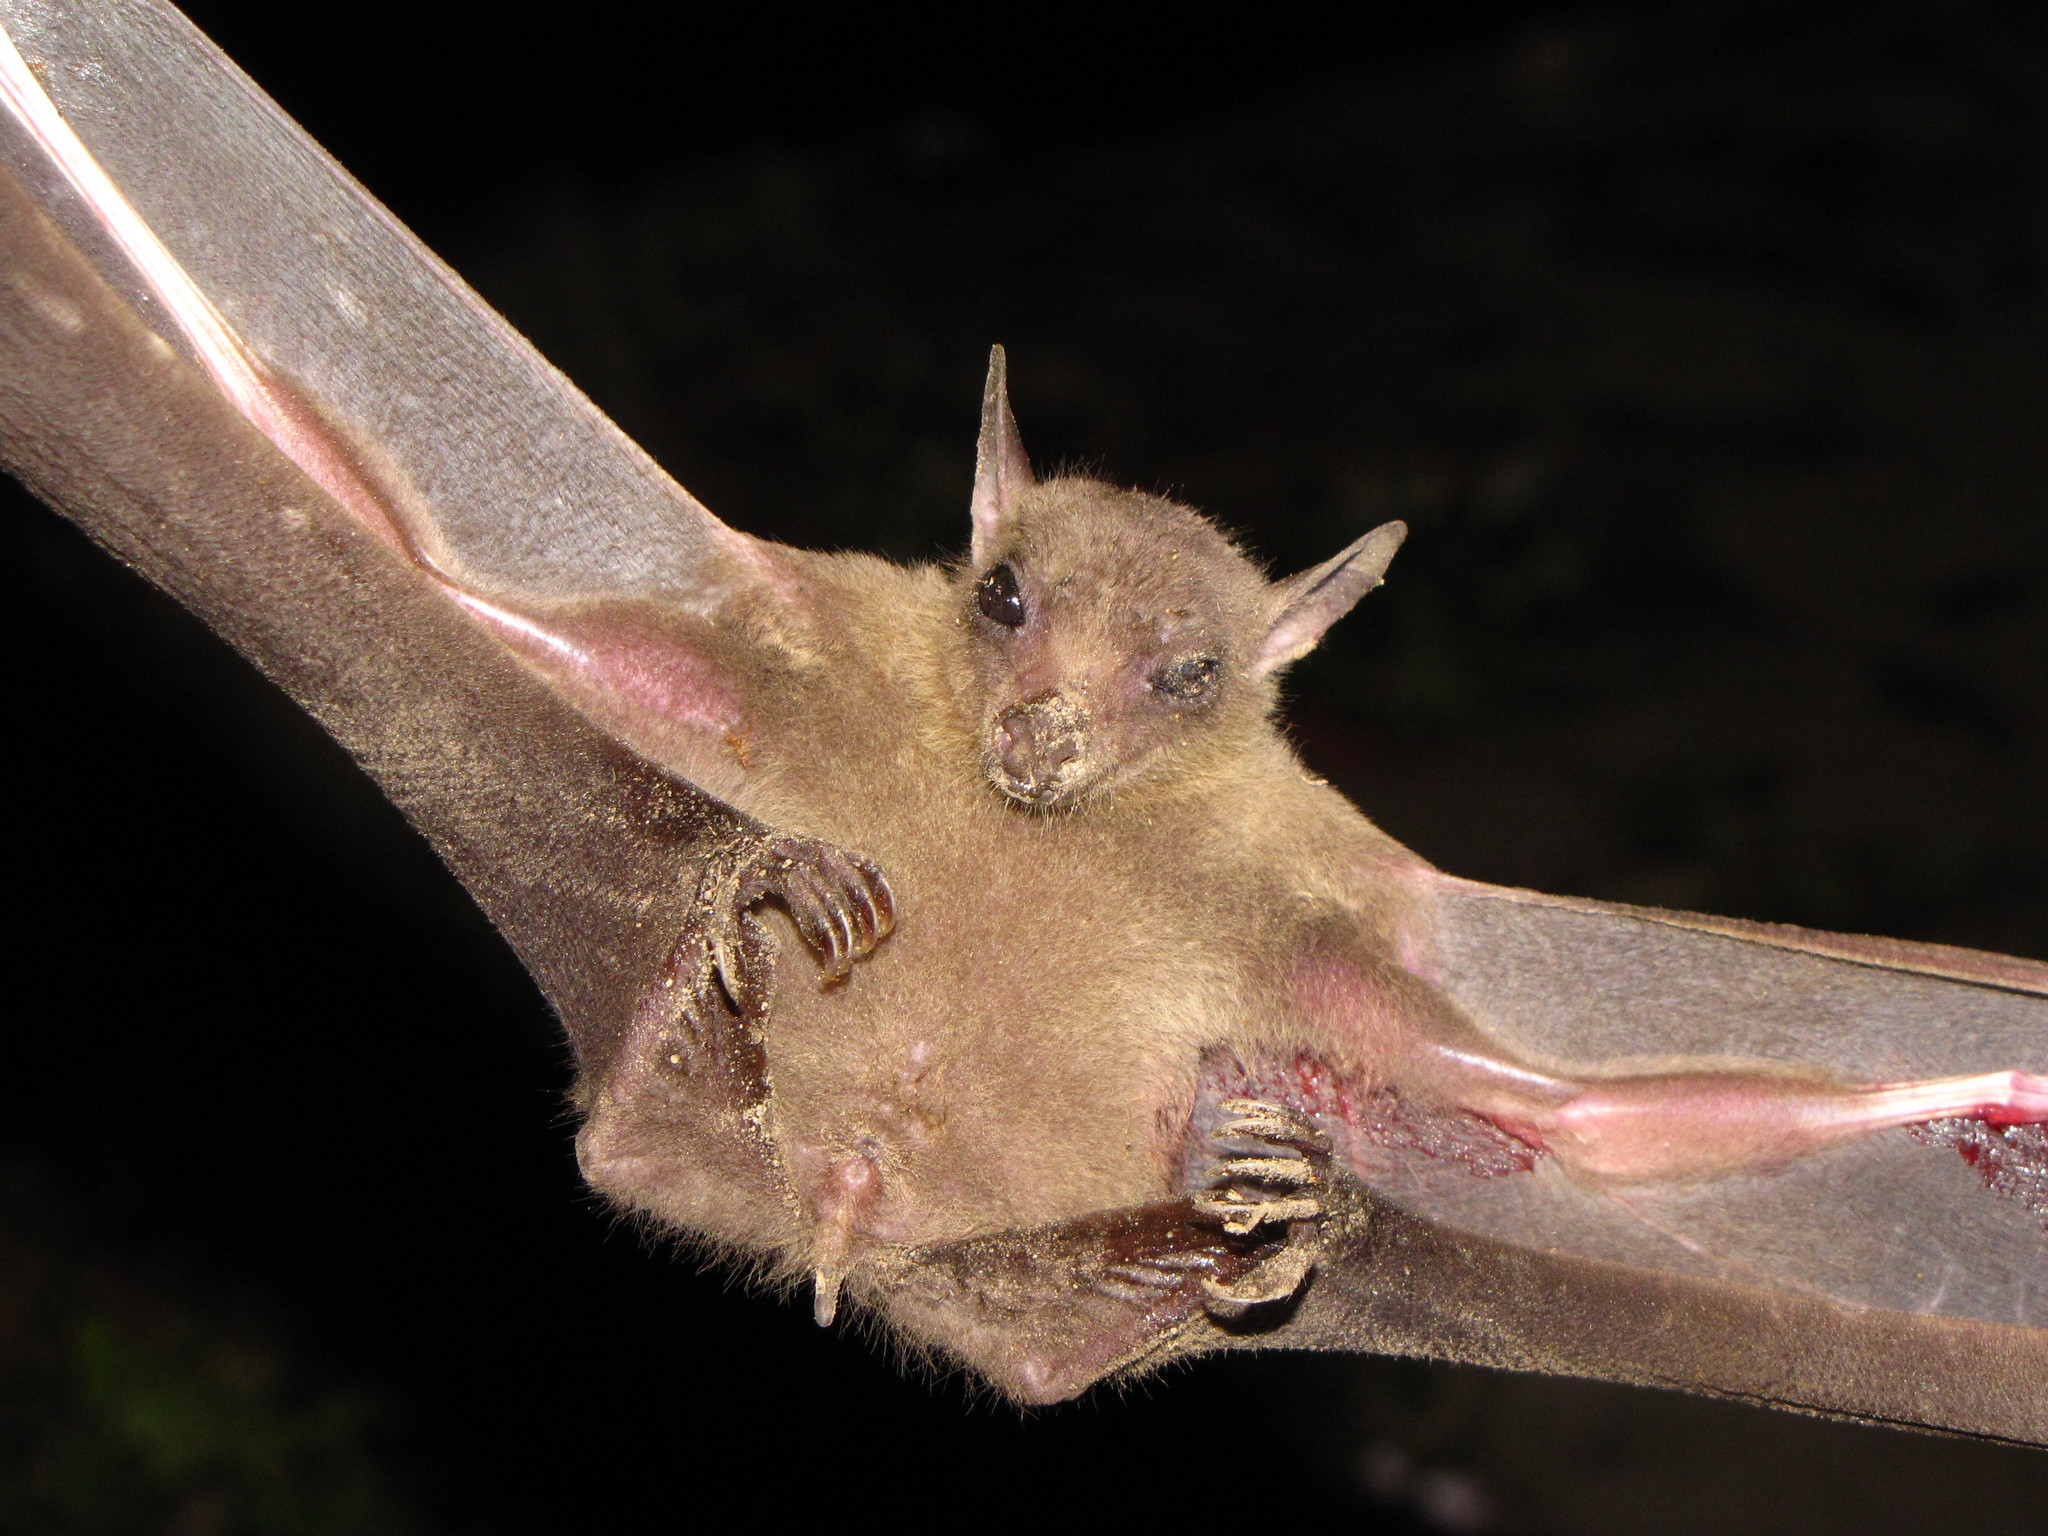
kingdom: Animalia
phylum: Chordata
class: Mammalia
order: Chiroptera
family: Pteropodidae
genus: Rousettus
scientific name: Rousettus leschenaultii
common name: Leschenault's rousette
